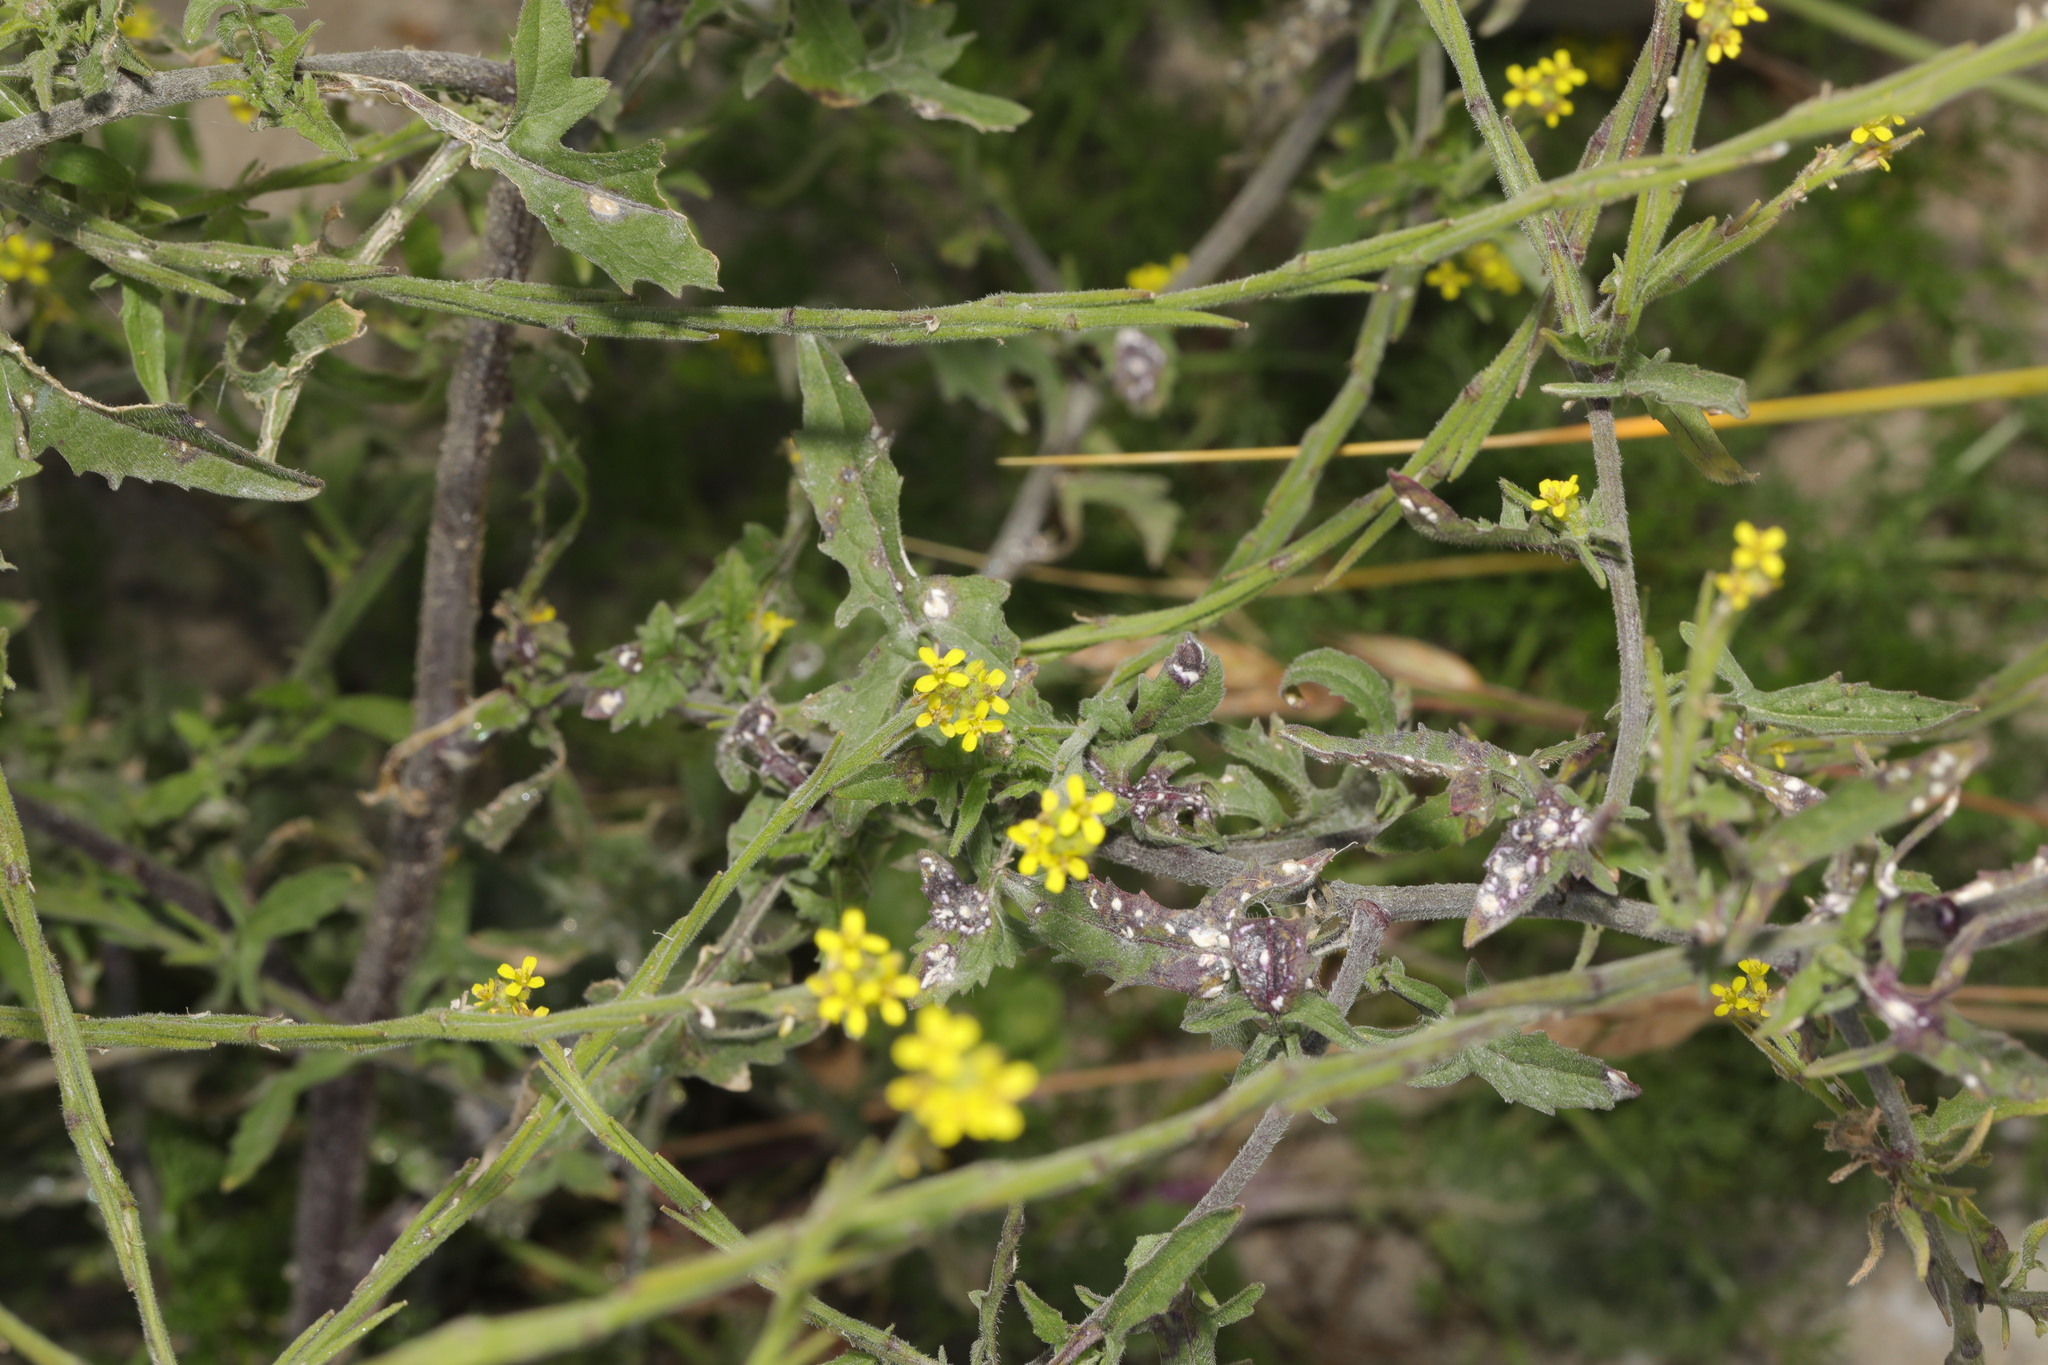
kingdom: Plantae
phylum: Tracheophyta
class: Magnoliopsida
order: Brassicales
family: Brassicaceae
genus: Sisymbrium
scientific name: Sisymbrium officinale
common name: Hedge mustard
